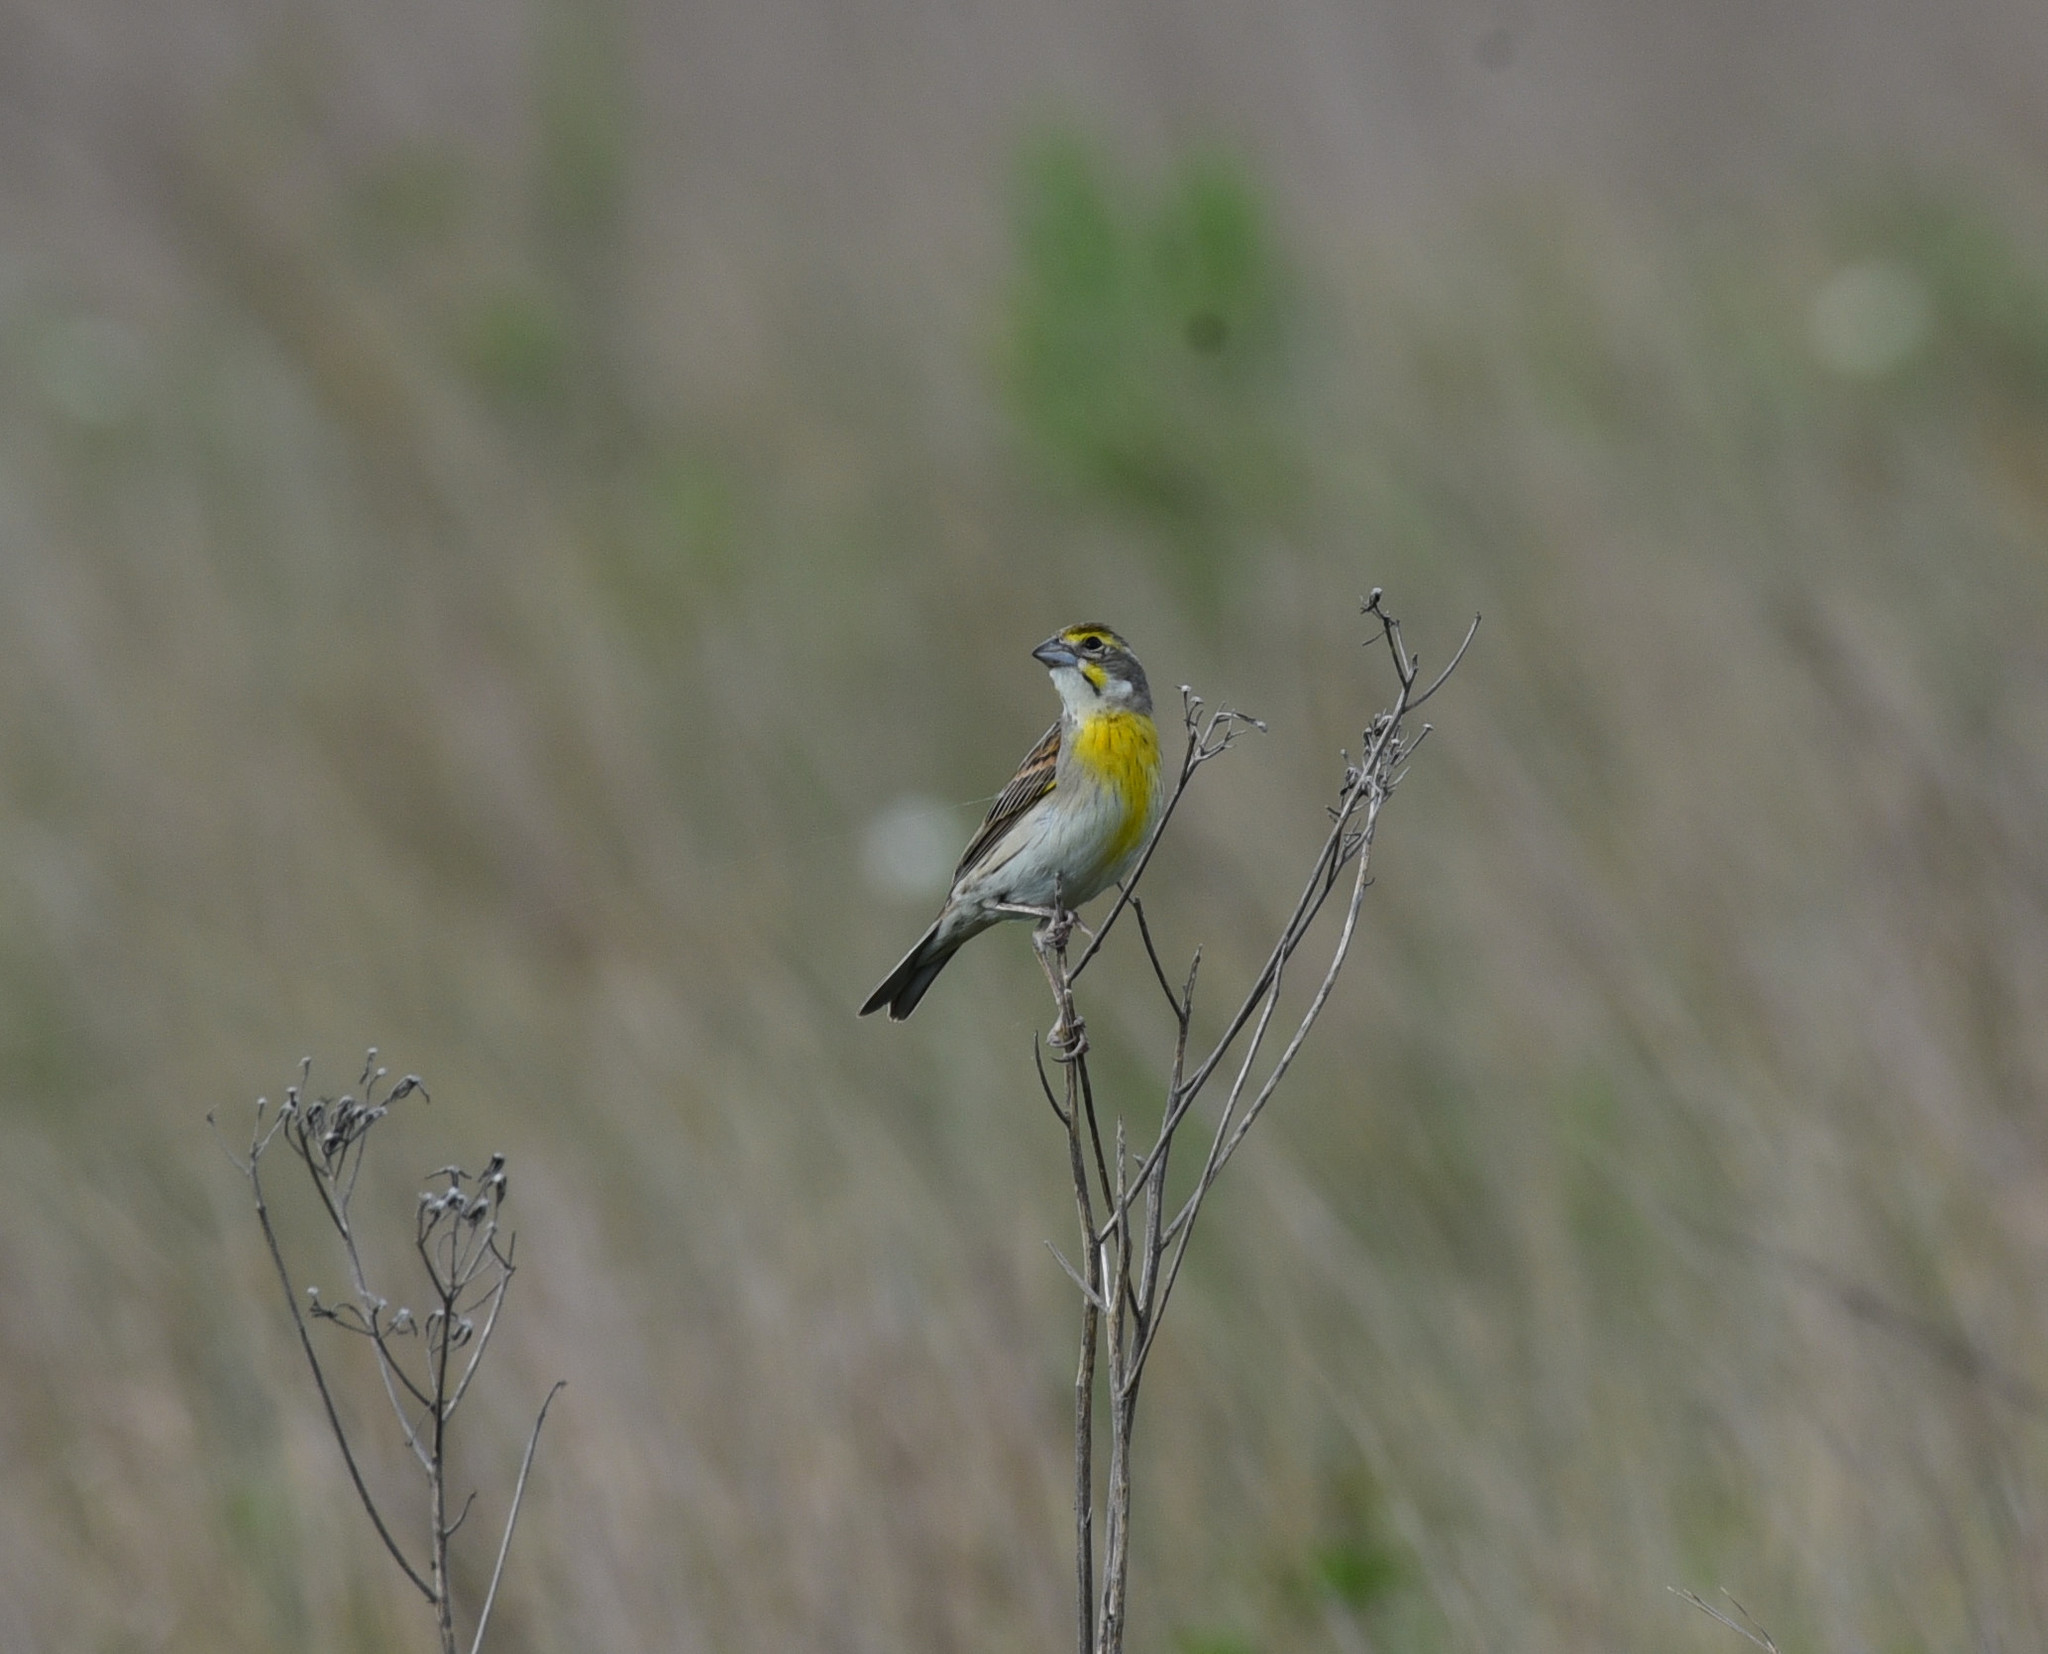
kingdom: Animalia
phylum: Chordata
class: Aves
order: Passeriformes
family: Cardinalidae
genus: Spiza
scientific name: Spiza americana
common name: Dickcissel
